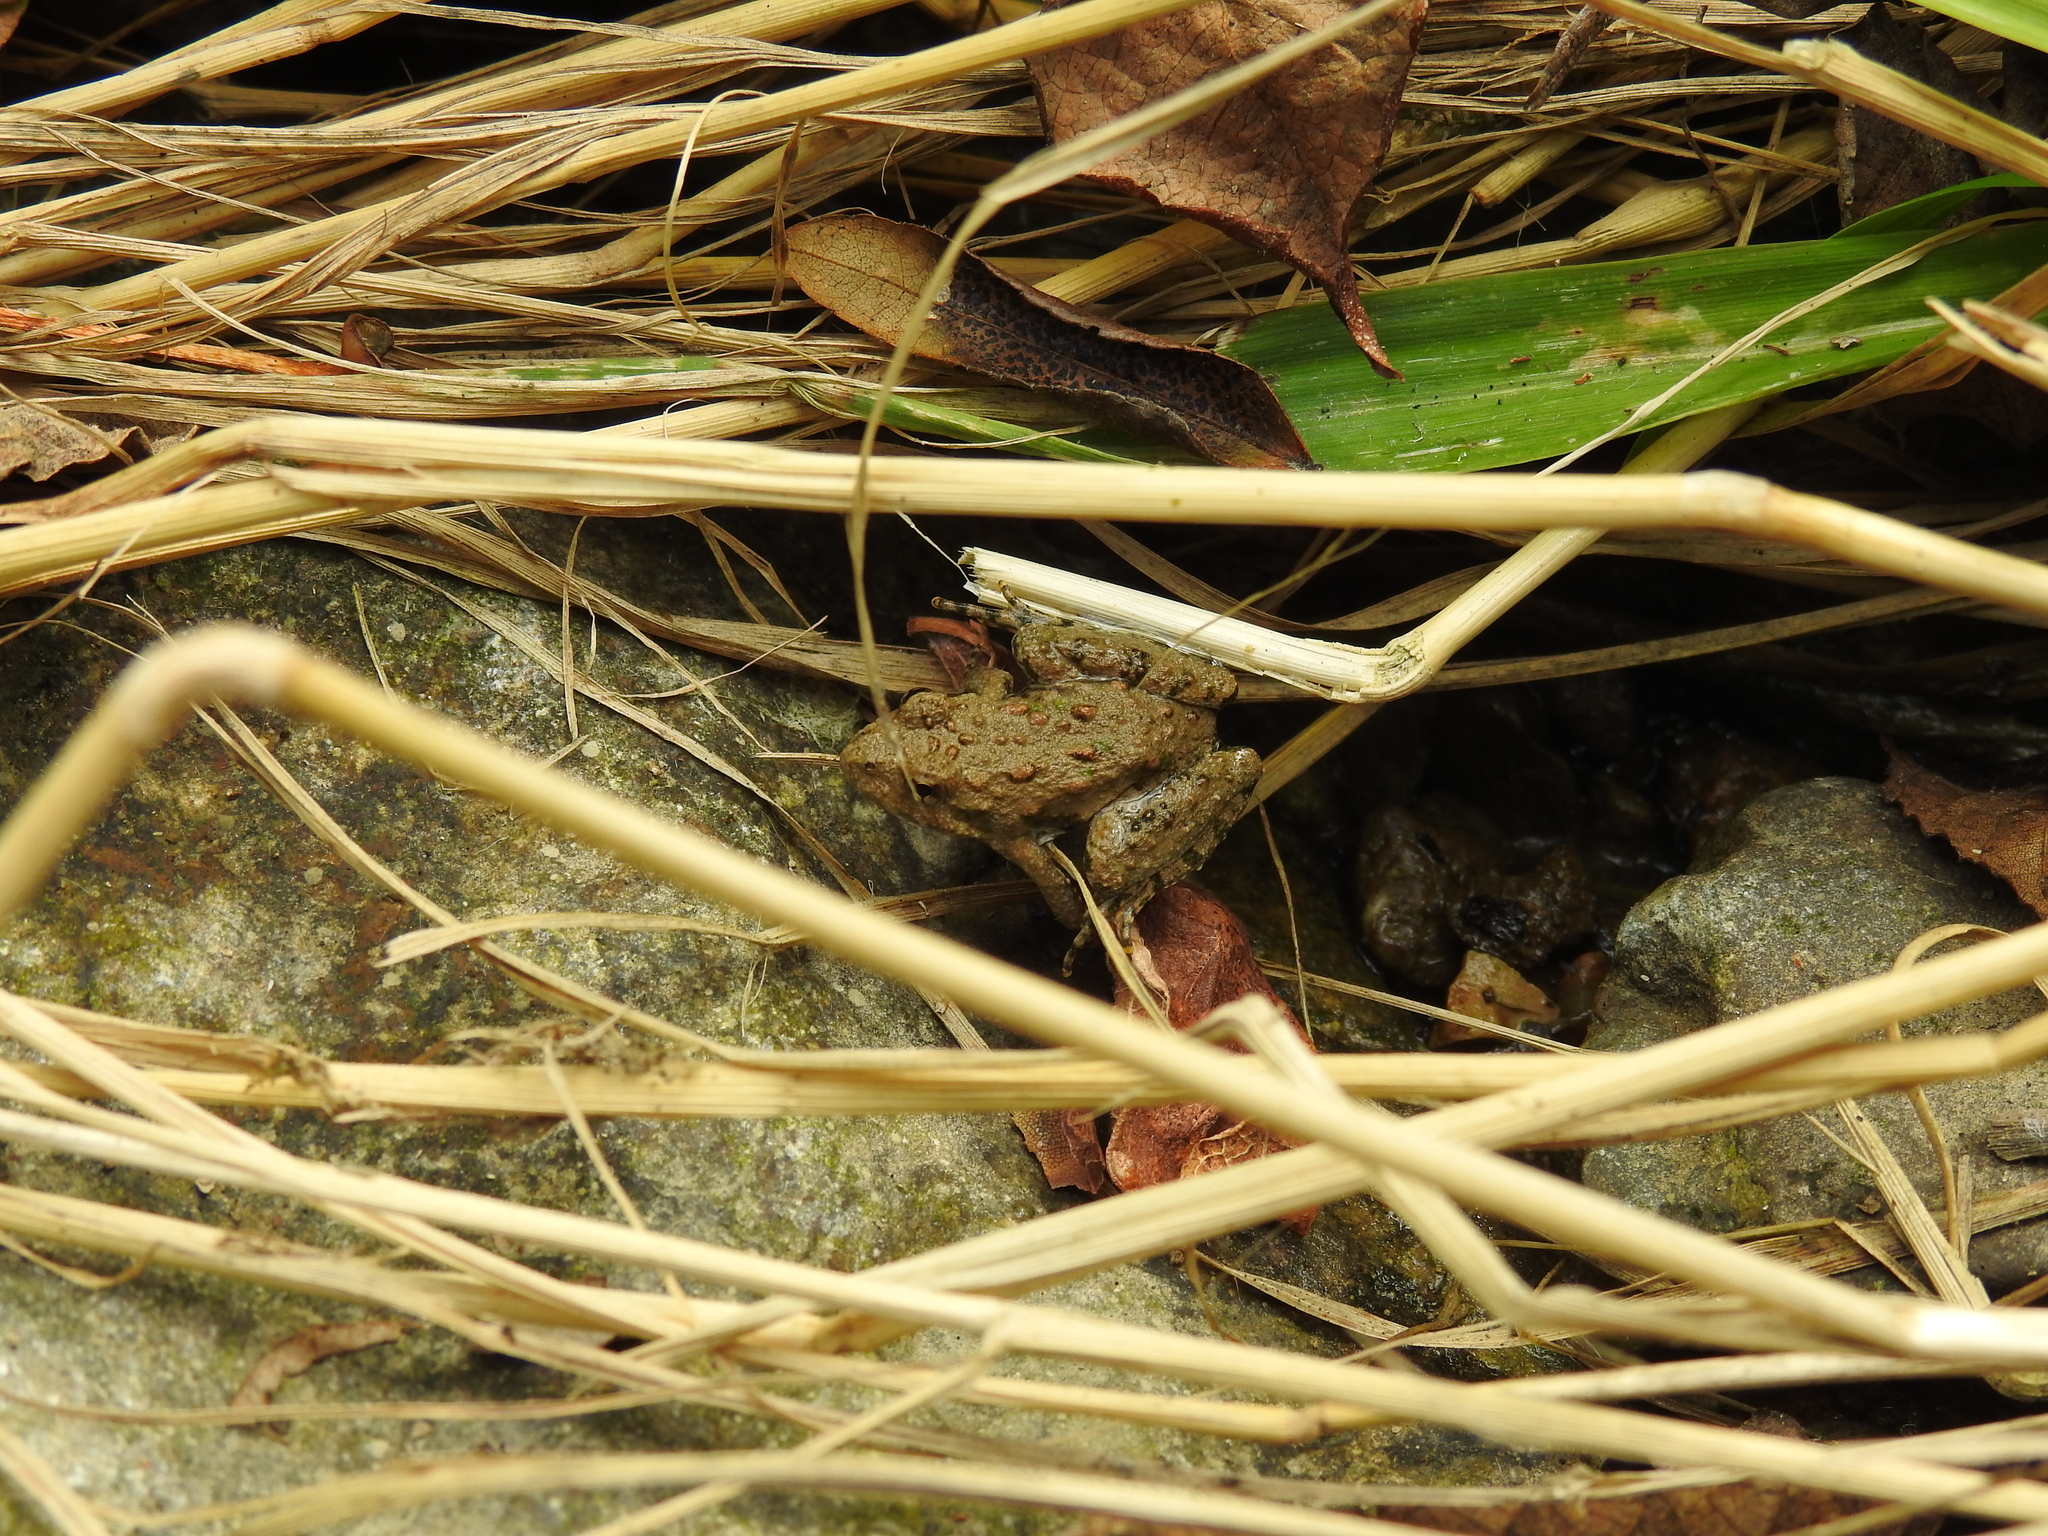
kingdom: Animalia
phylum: Chordata
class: Amphibia
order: Anura
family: Hylidae
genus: Acris
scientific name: Acris blanchardi
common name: Blanchard's cricket frog
